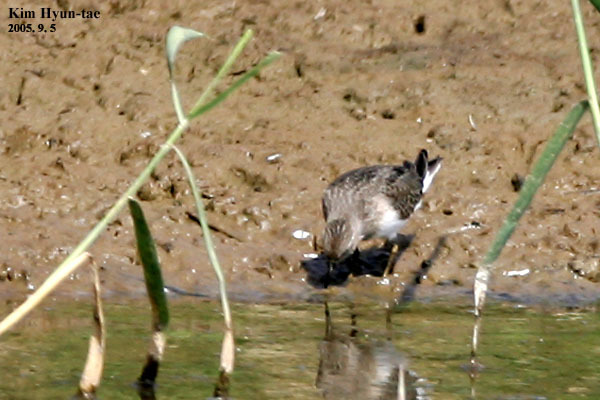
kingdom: Animalia
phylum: Chordata
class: Aves
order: Charadriiformes
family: Scolopacidae
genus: Calidris
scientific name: Calidris temminckii
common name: Temminck's stint
